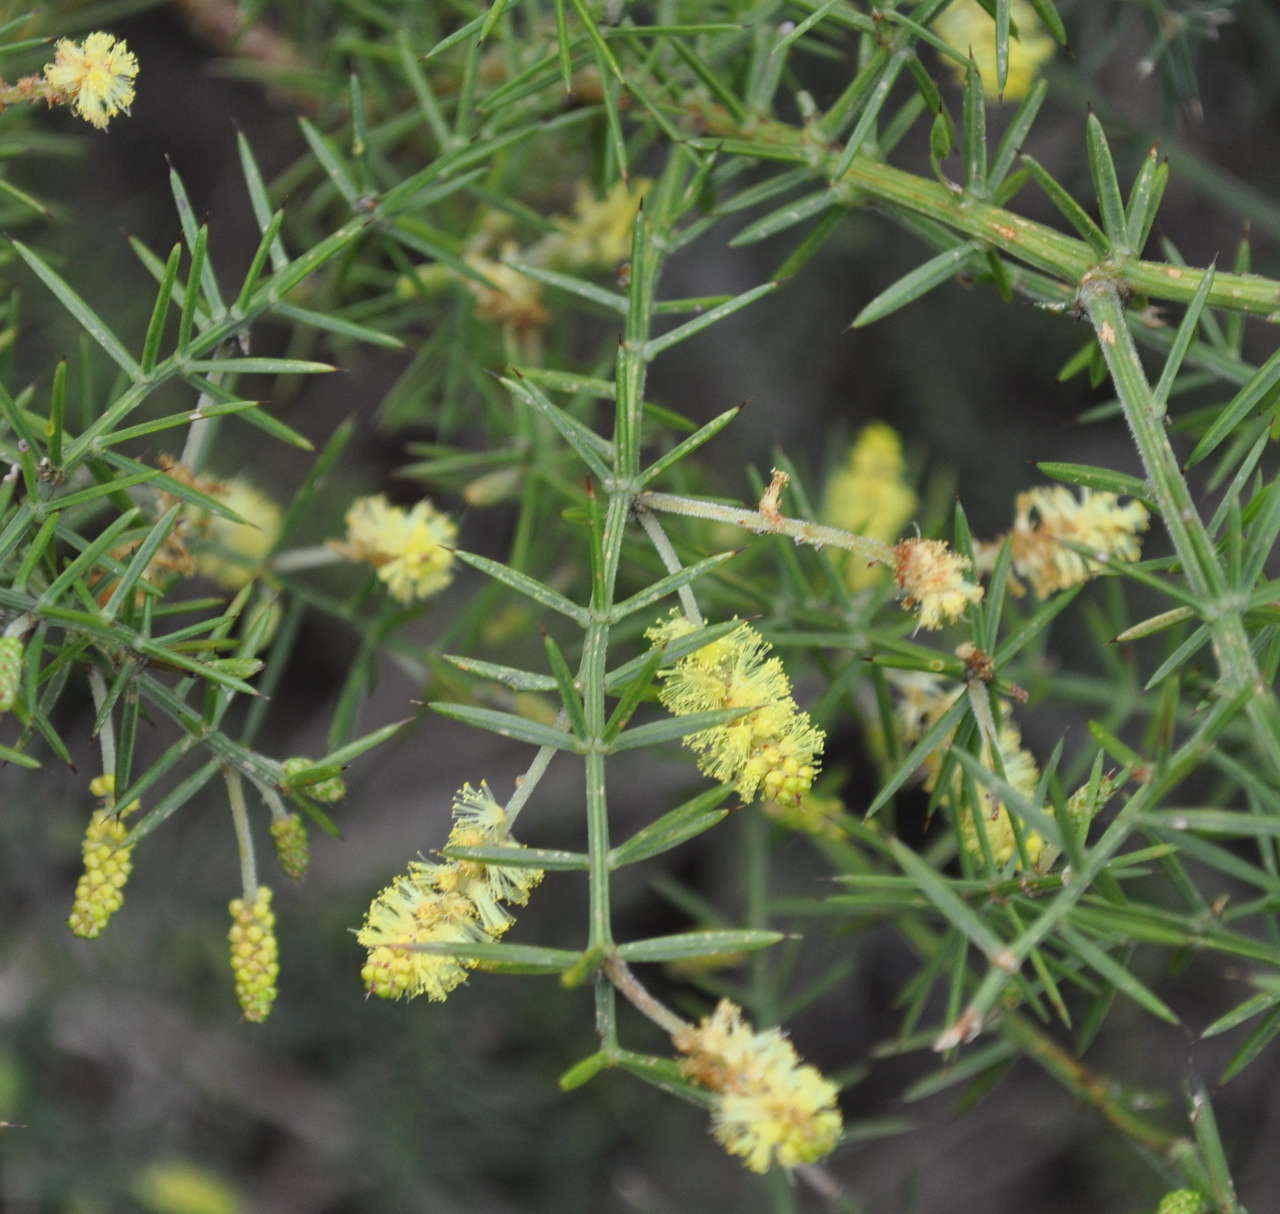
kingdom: Plantae
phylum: Tracheophyta
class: Magnoliopsida
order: Fabales
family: Fabaceae
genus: Acacia
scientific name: Acacia verticillata
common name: Prickly moses
